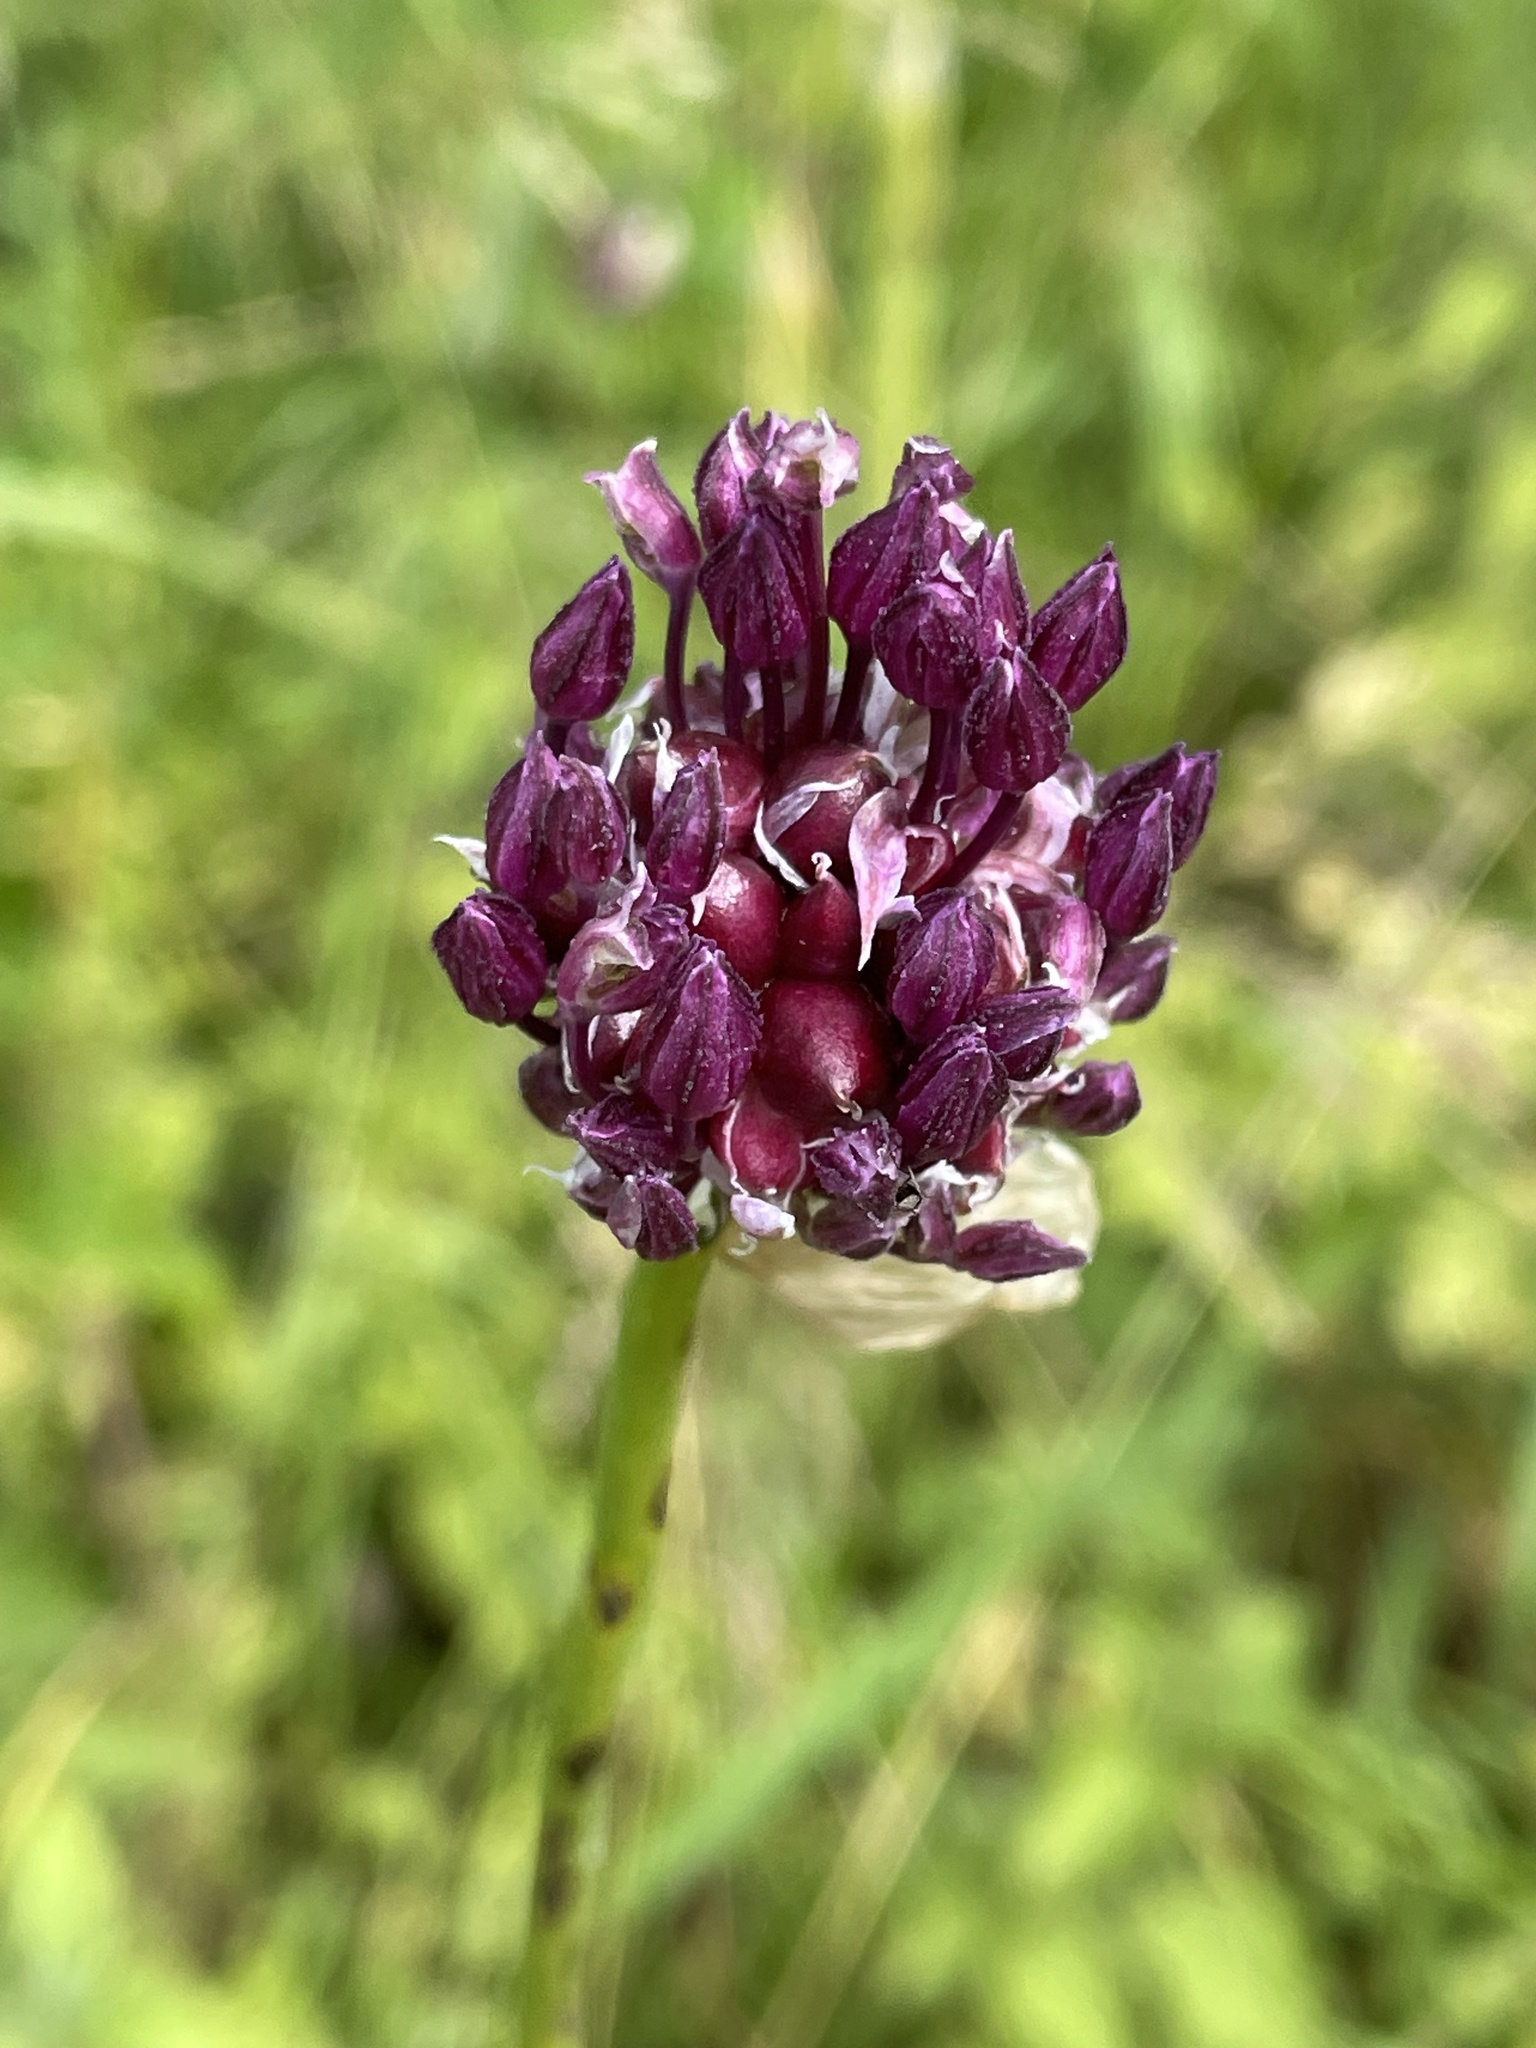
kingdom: Plantae
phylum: Tracheophyta
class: Liliopsida
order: Asparagales
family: Amaryllidaceae
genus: Allium
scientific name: Allium scorodoprasum
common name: Sand leek
